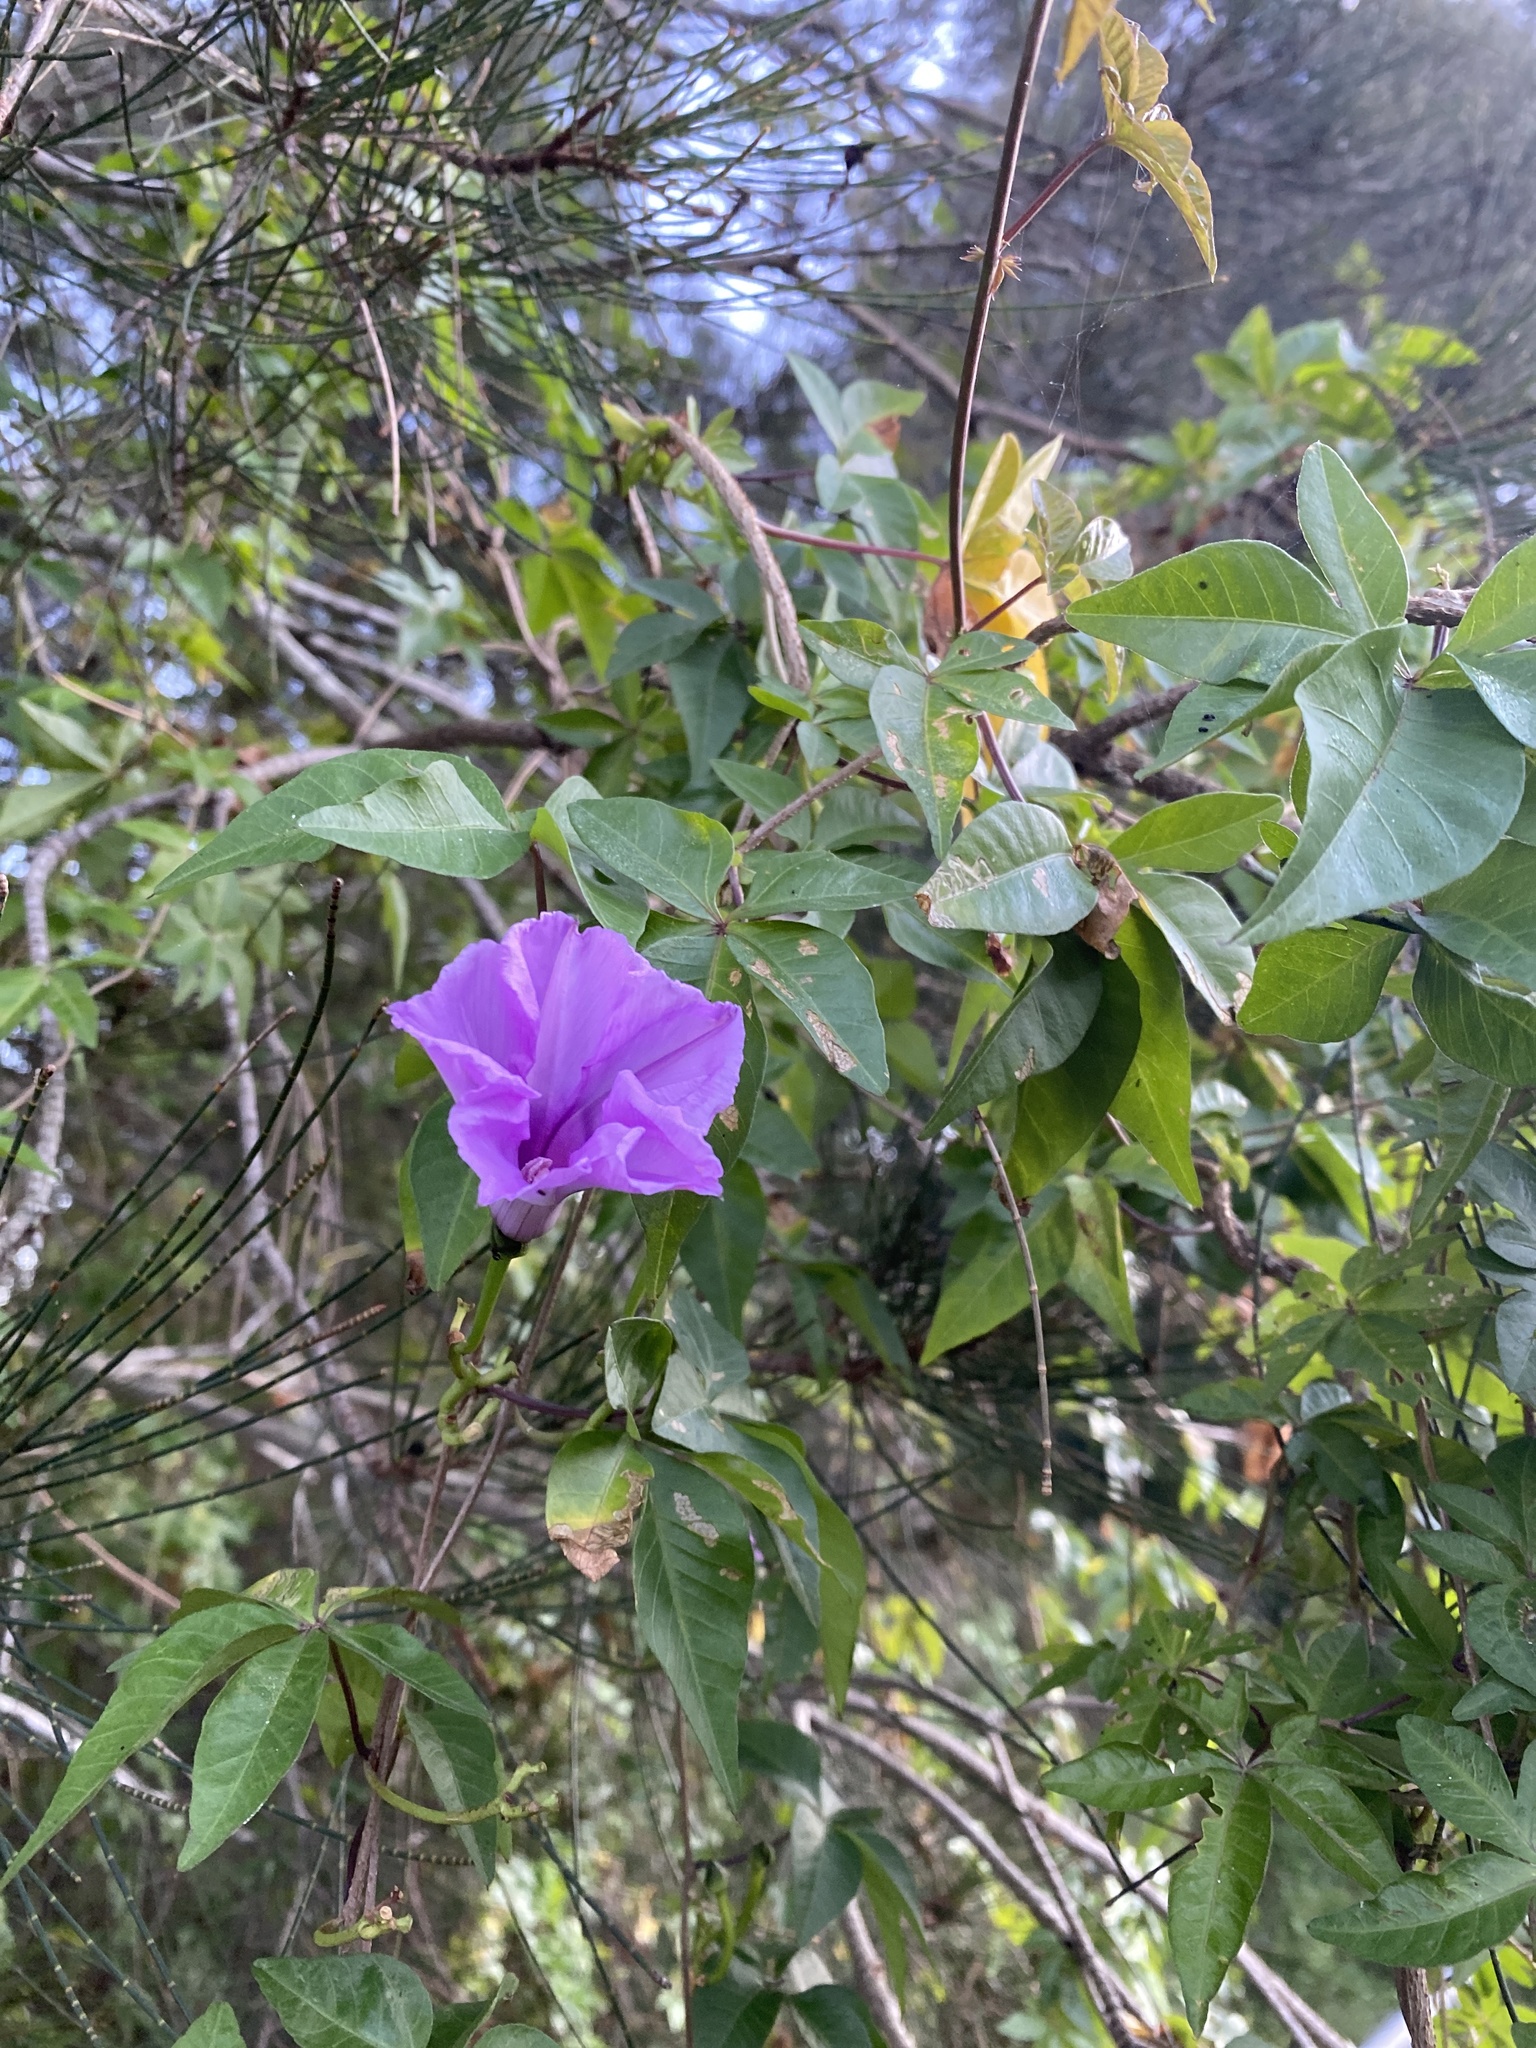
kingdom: Plantae
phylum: Tracheophyta
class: Magnoliopsida
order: Solanales
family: Convolvulaceae
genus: Ipomoea
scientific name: Ipomoea cairica
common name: Mile a minute vine
